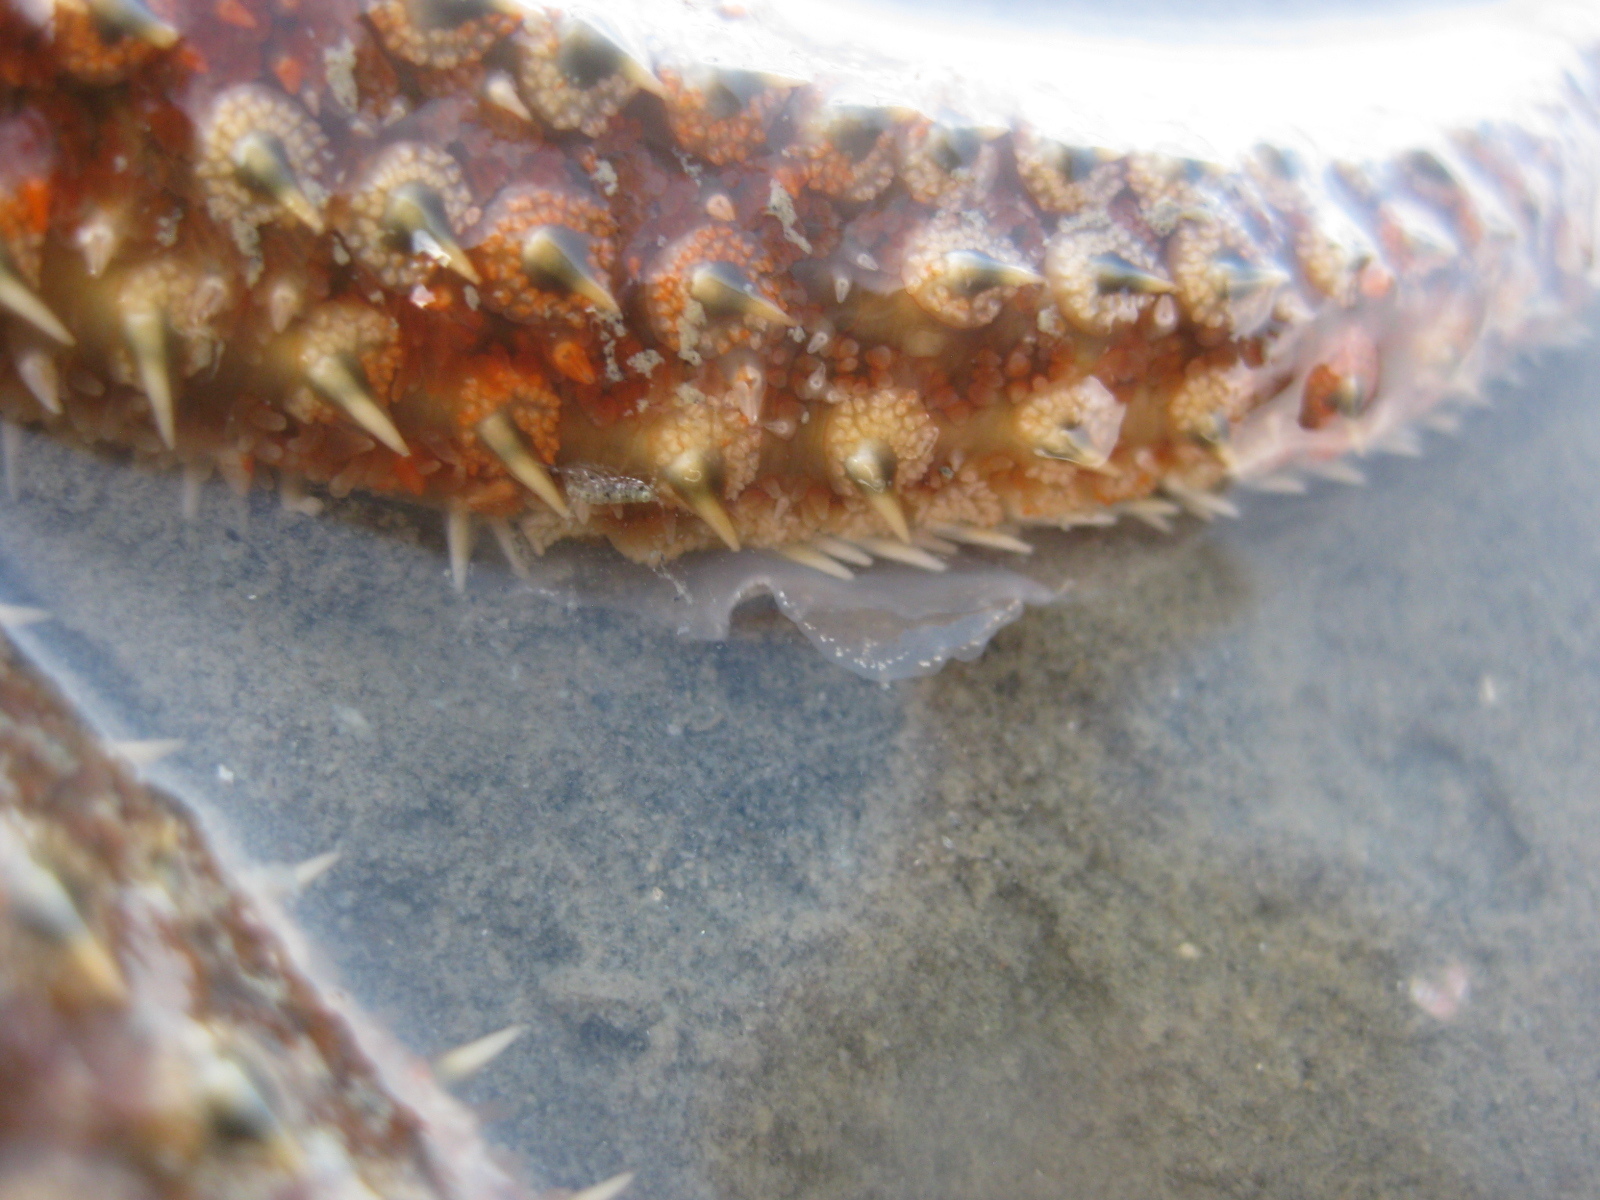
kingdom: Animalia
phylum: Echinodermata
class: Asteroidea
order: Forcipulatida
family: Asteriidae
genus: Coscinasterias
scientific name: Coscinasterias muricata
